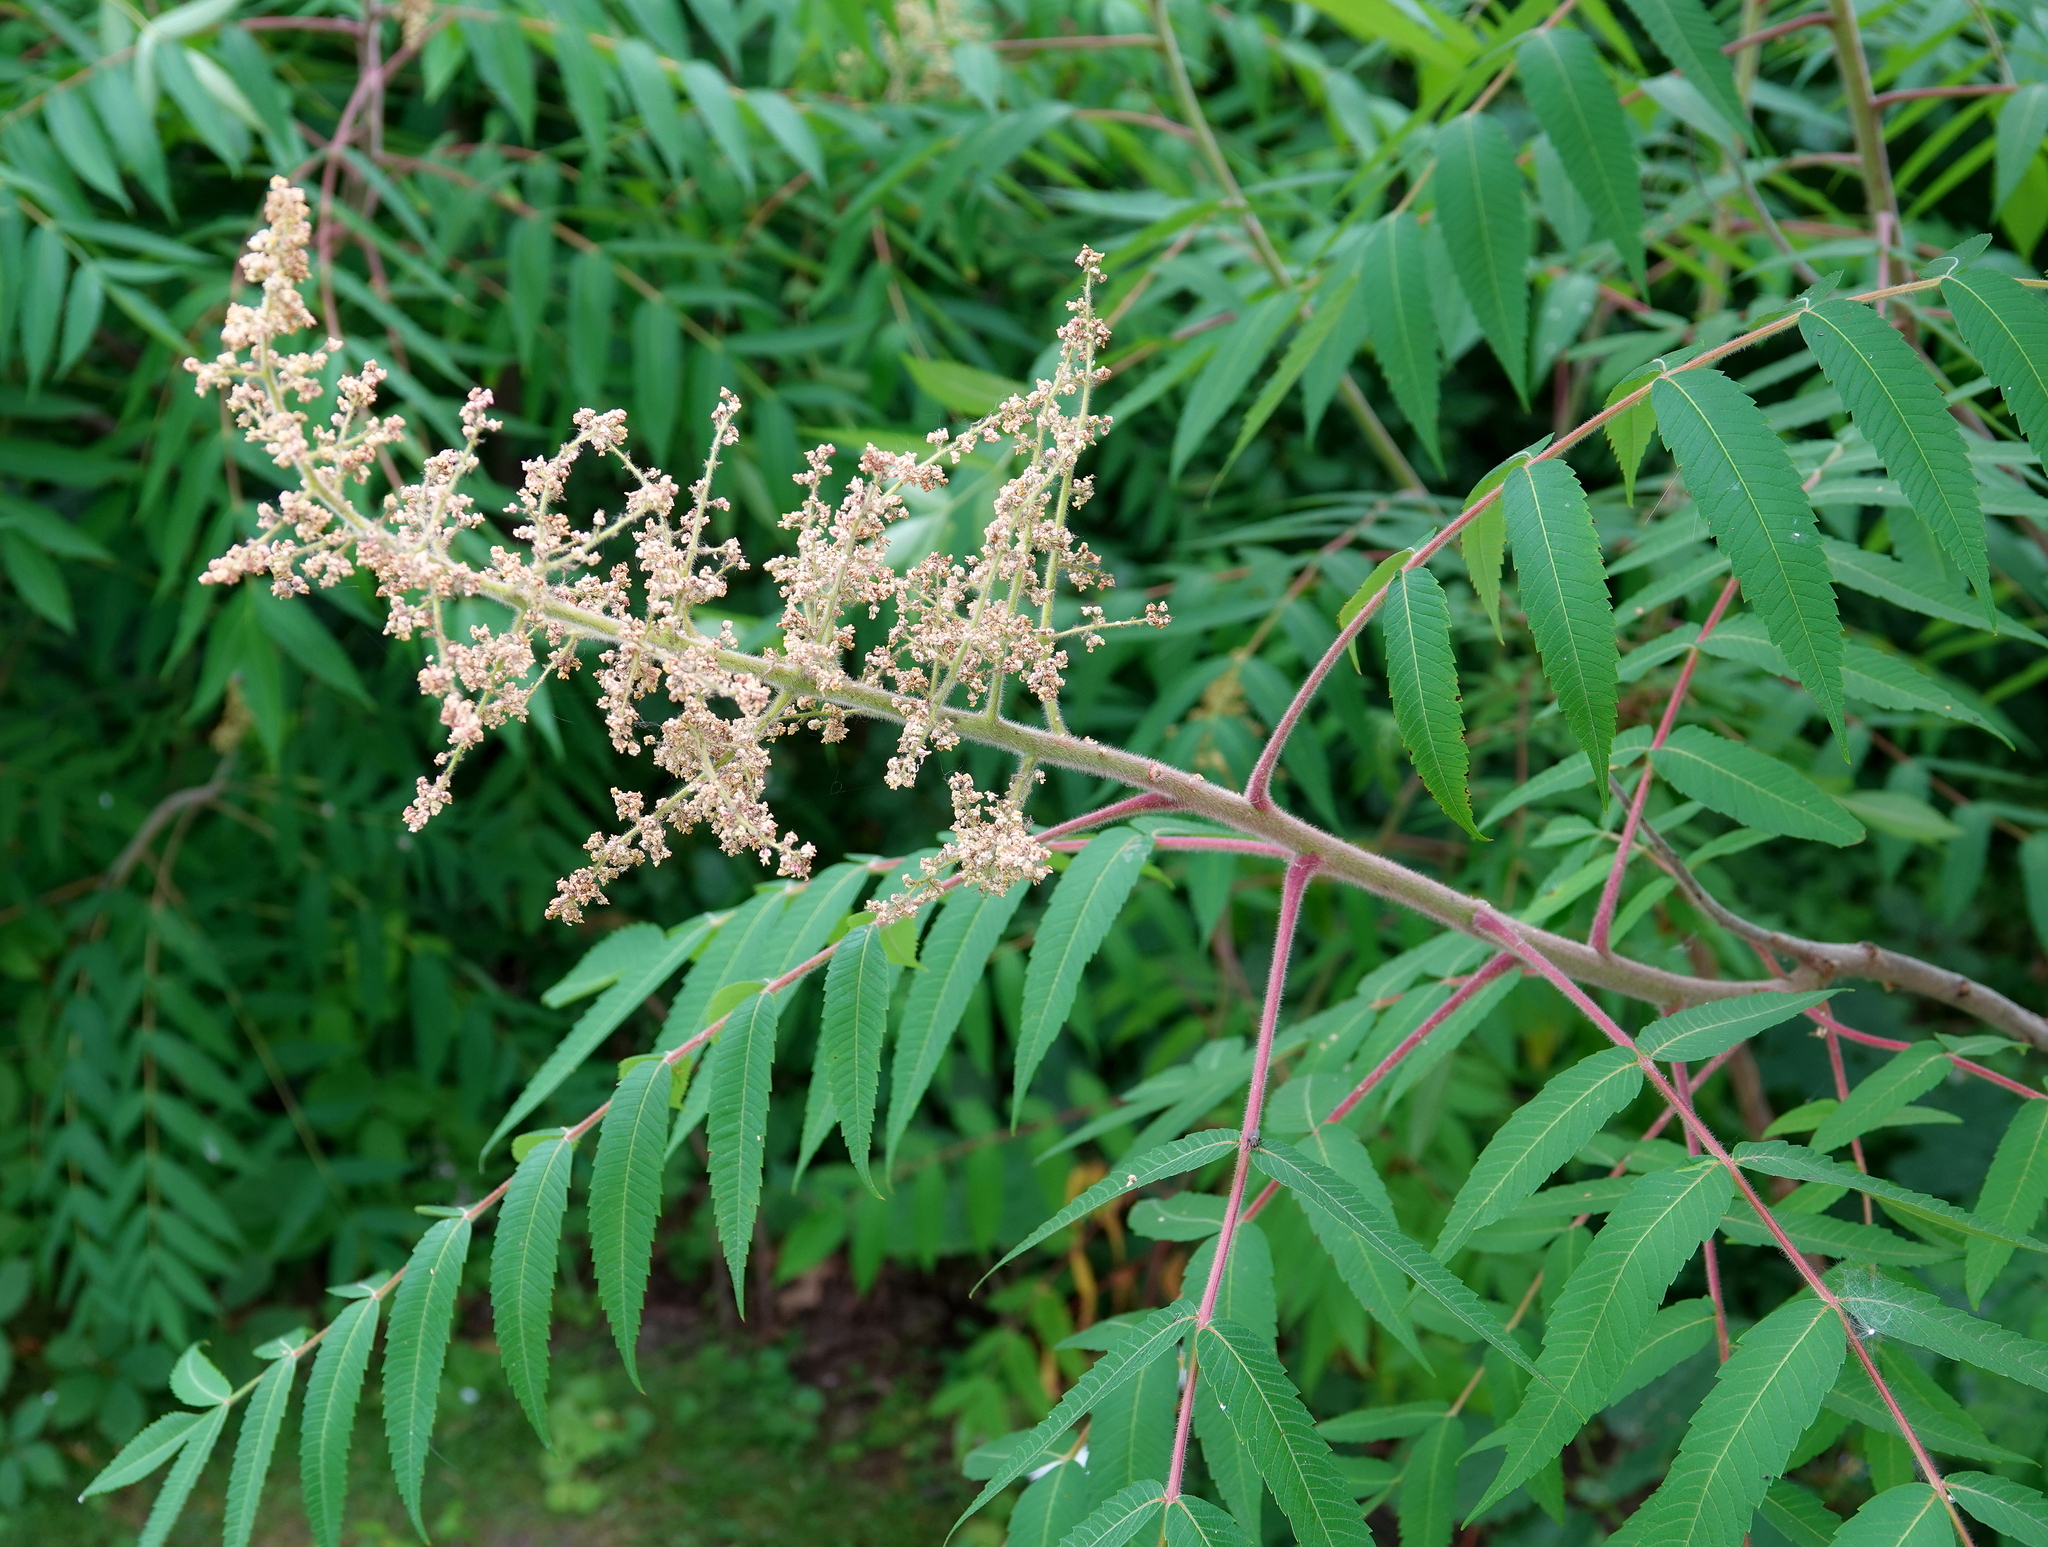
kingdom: Plantae
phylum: Tracheophyta
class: Magnoliopsida
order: Sapindales
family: Anacardiaceae
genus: Rhus
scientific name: Rhus typhina
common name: Staghorn sumac
